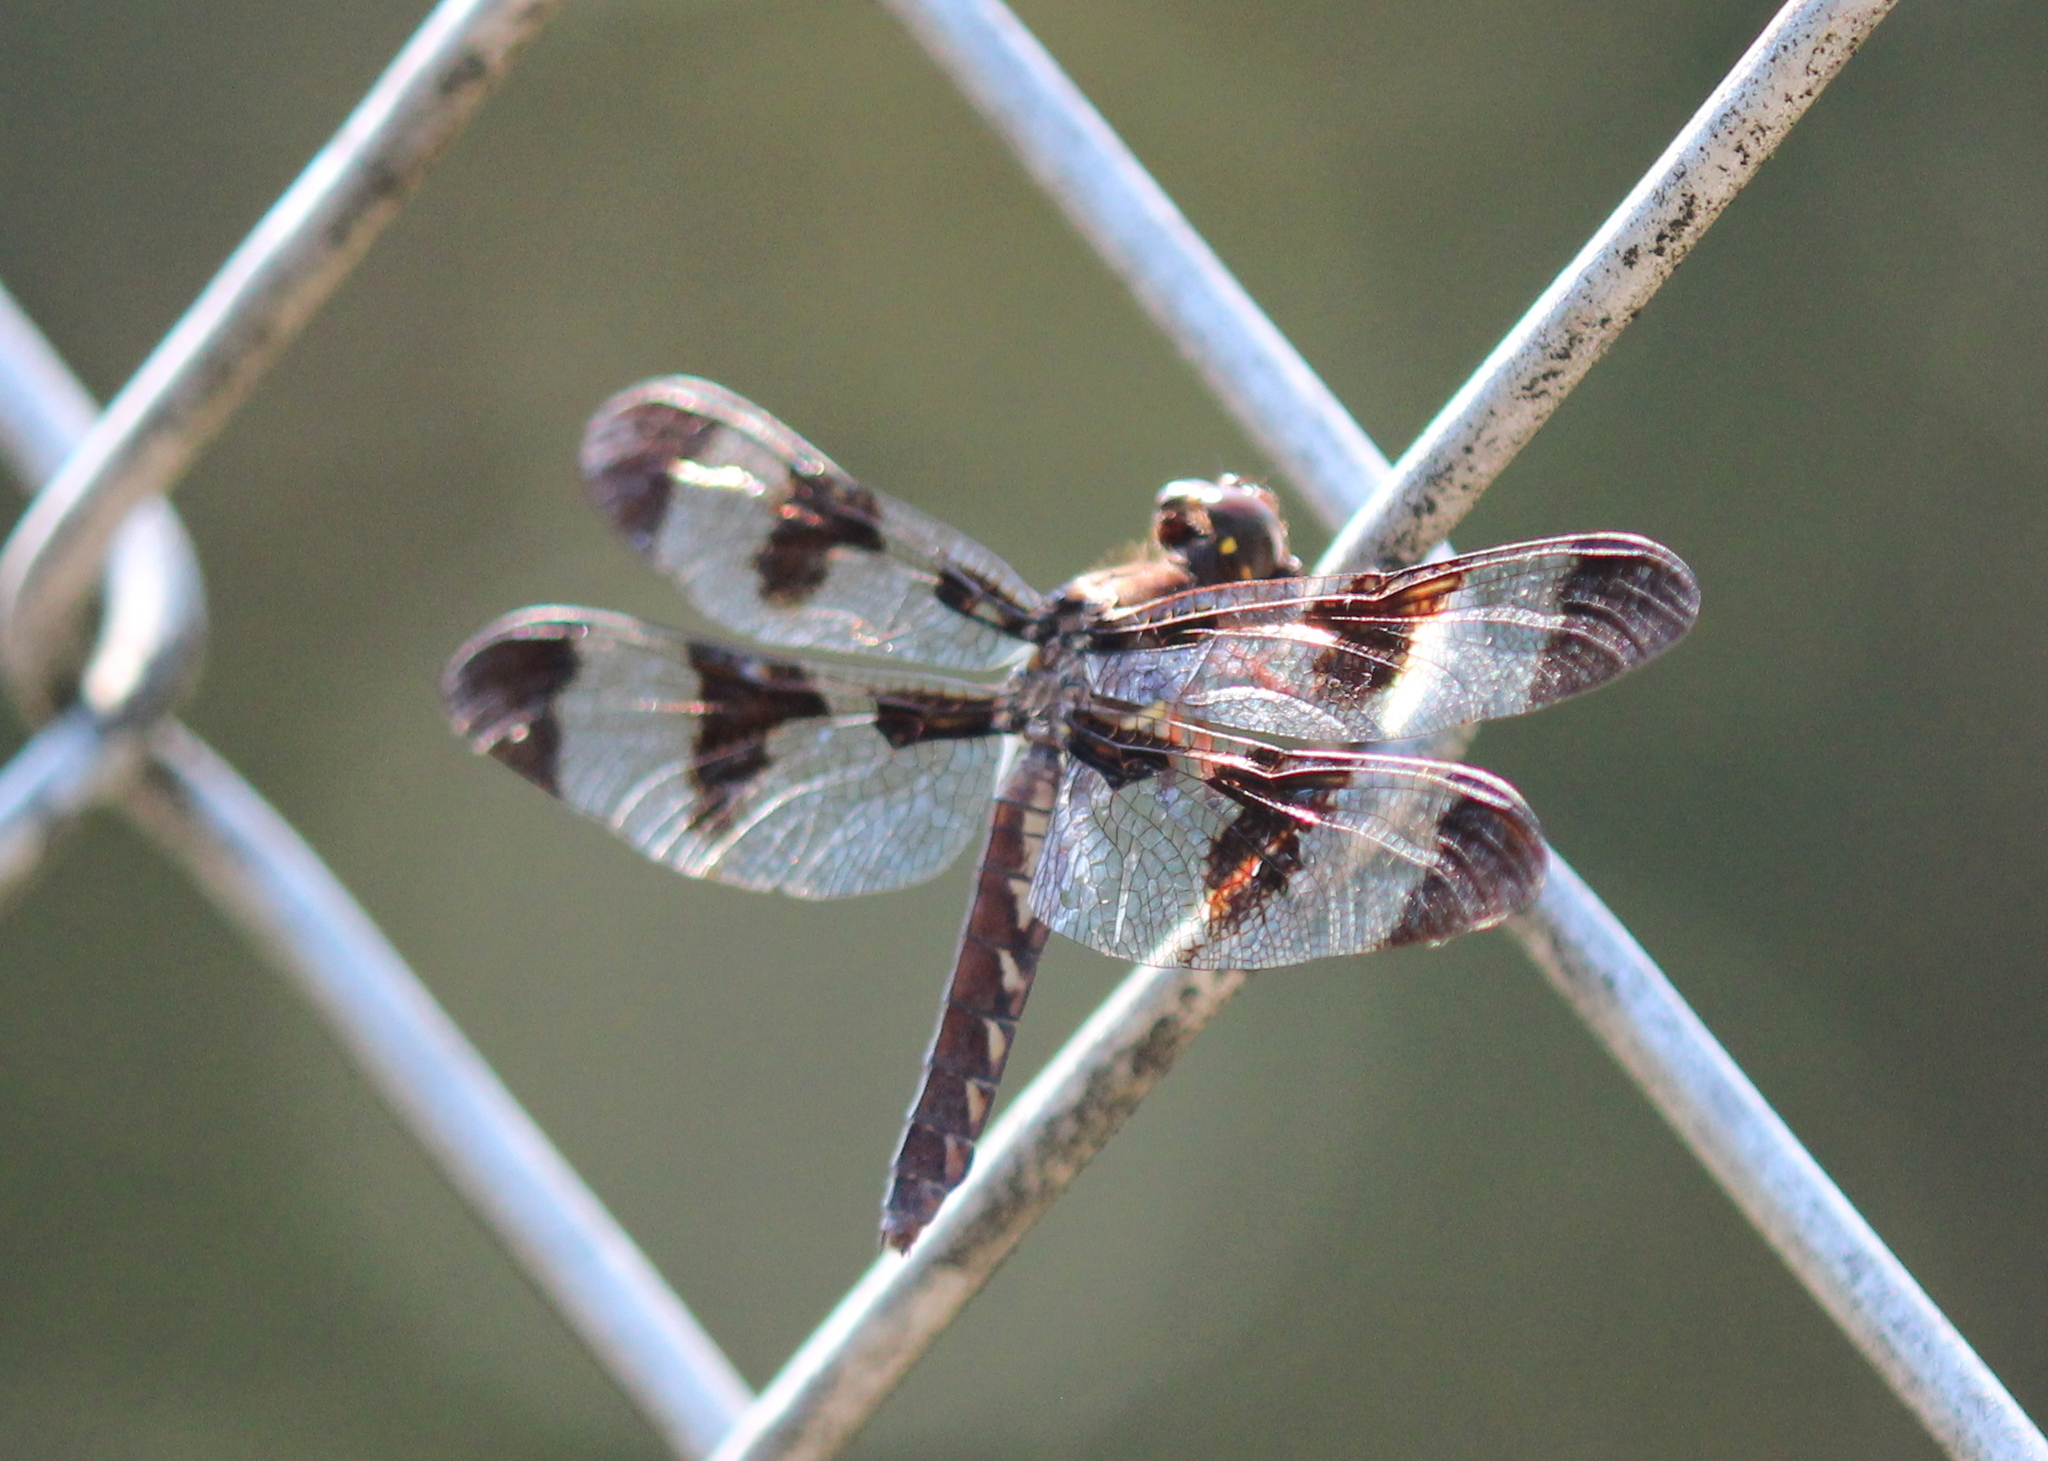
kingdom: Animalia
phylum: Arthropoda
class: Insecta
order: Odonata
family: Libellulidae
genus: Plathemis
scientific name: Plathemis lydia
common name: Common whitetail
